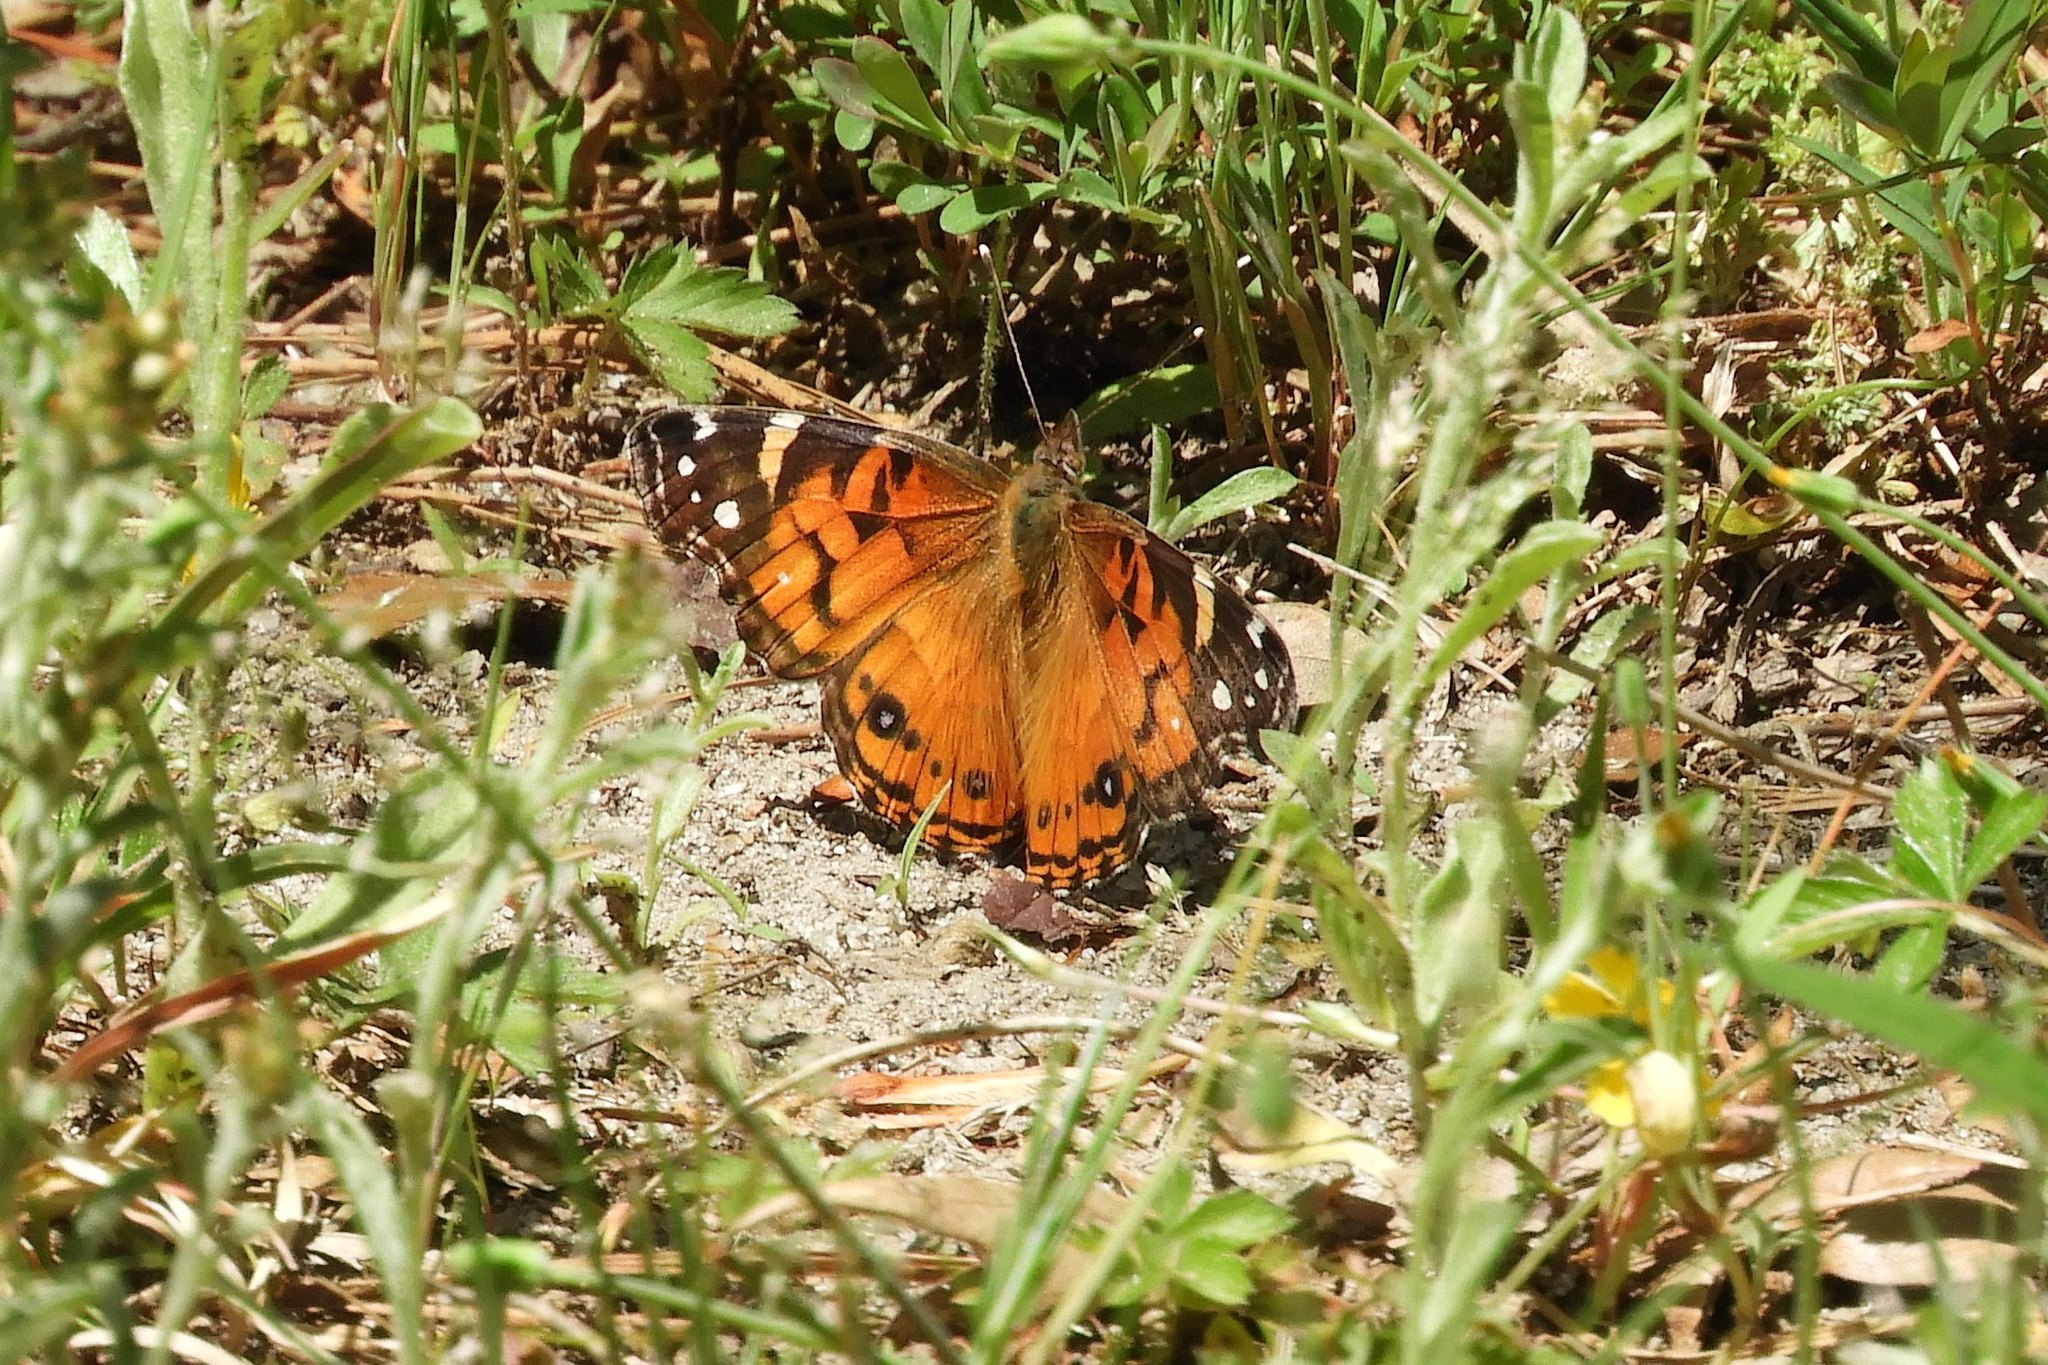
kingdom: Animalia
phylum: Arthropoda
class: Insecta
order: Lepidoptera
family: Nymphalidae
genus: Vanessa
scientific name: Vanessa virginiensis
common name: American lady
